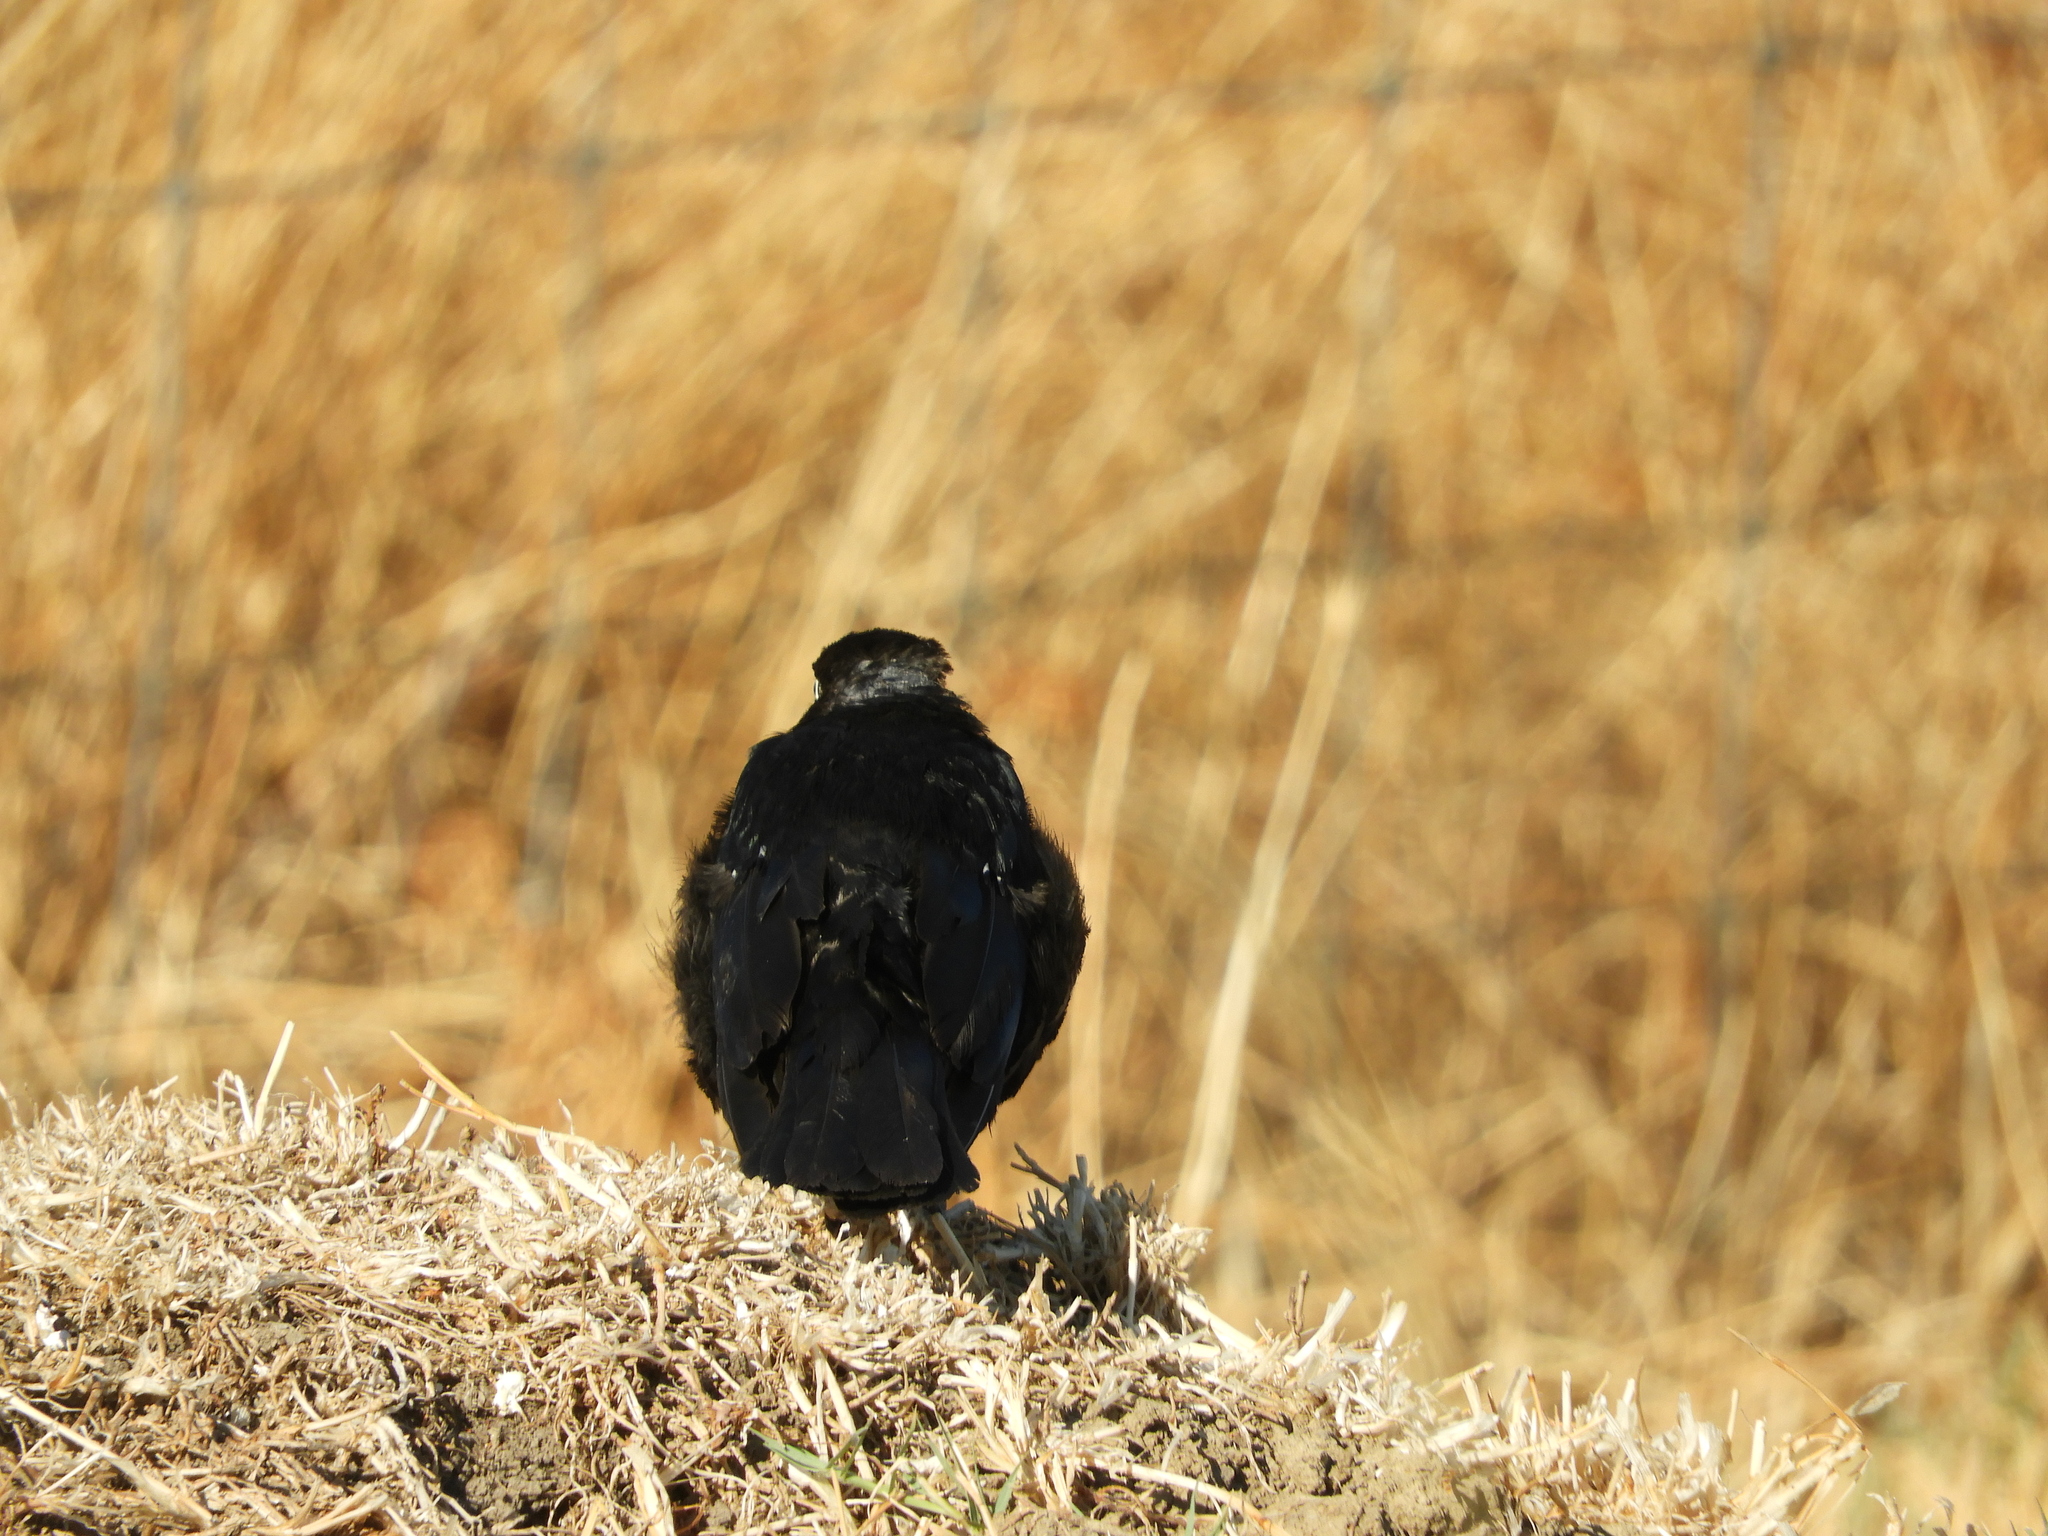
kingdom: Animalia
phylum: Chordata
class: Aves
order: Passeriformes
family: Icteridae
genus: Euphagus
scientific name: Euphagus cyanocephalus
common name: Brewer's blackbird
